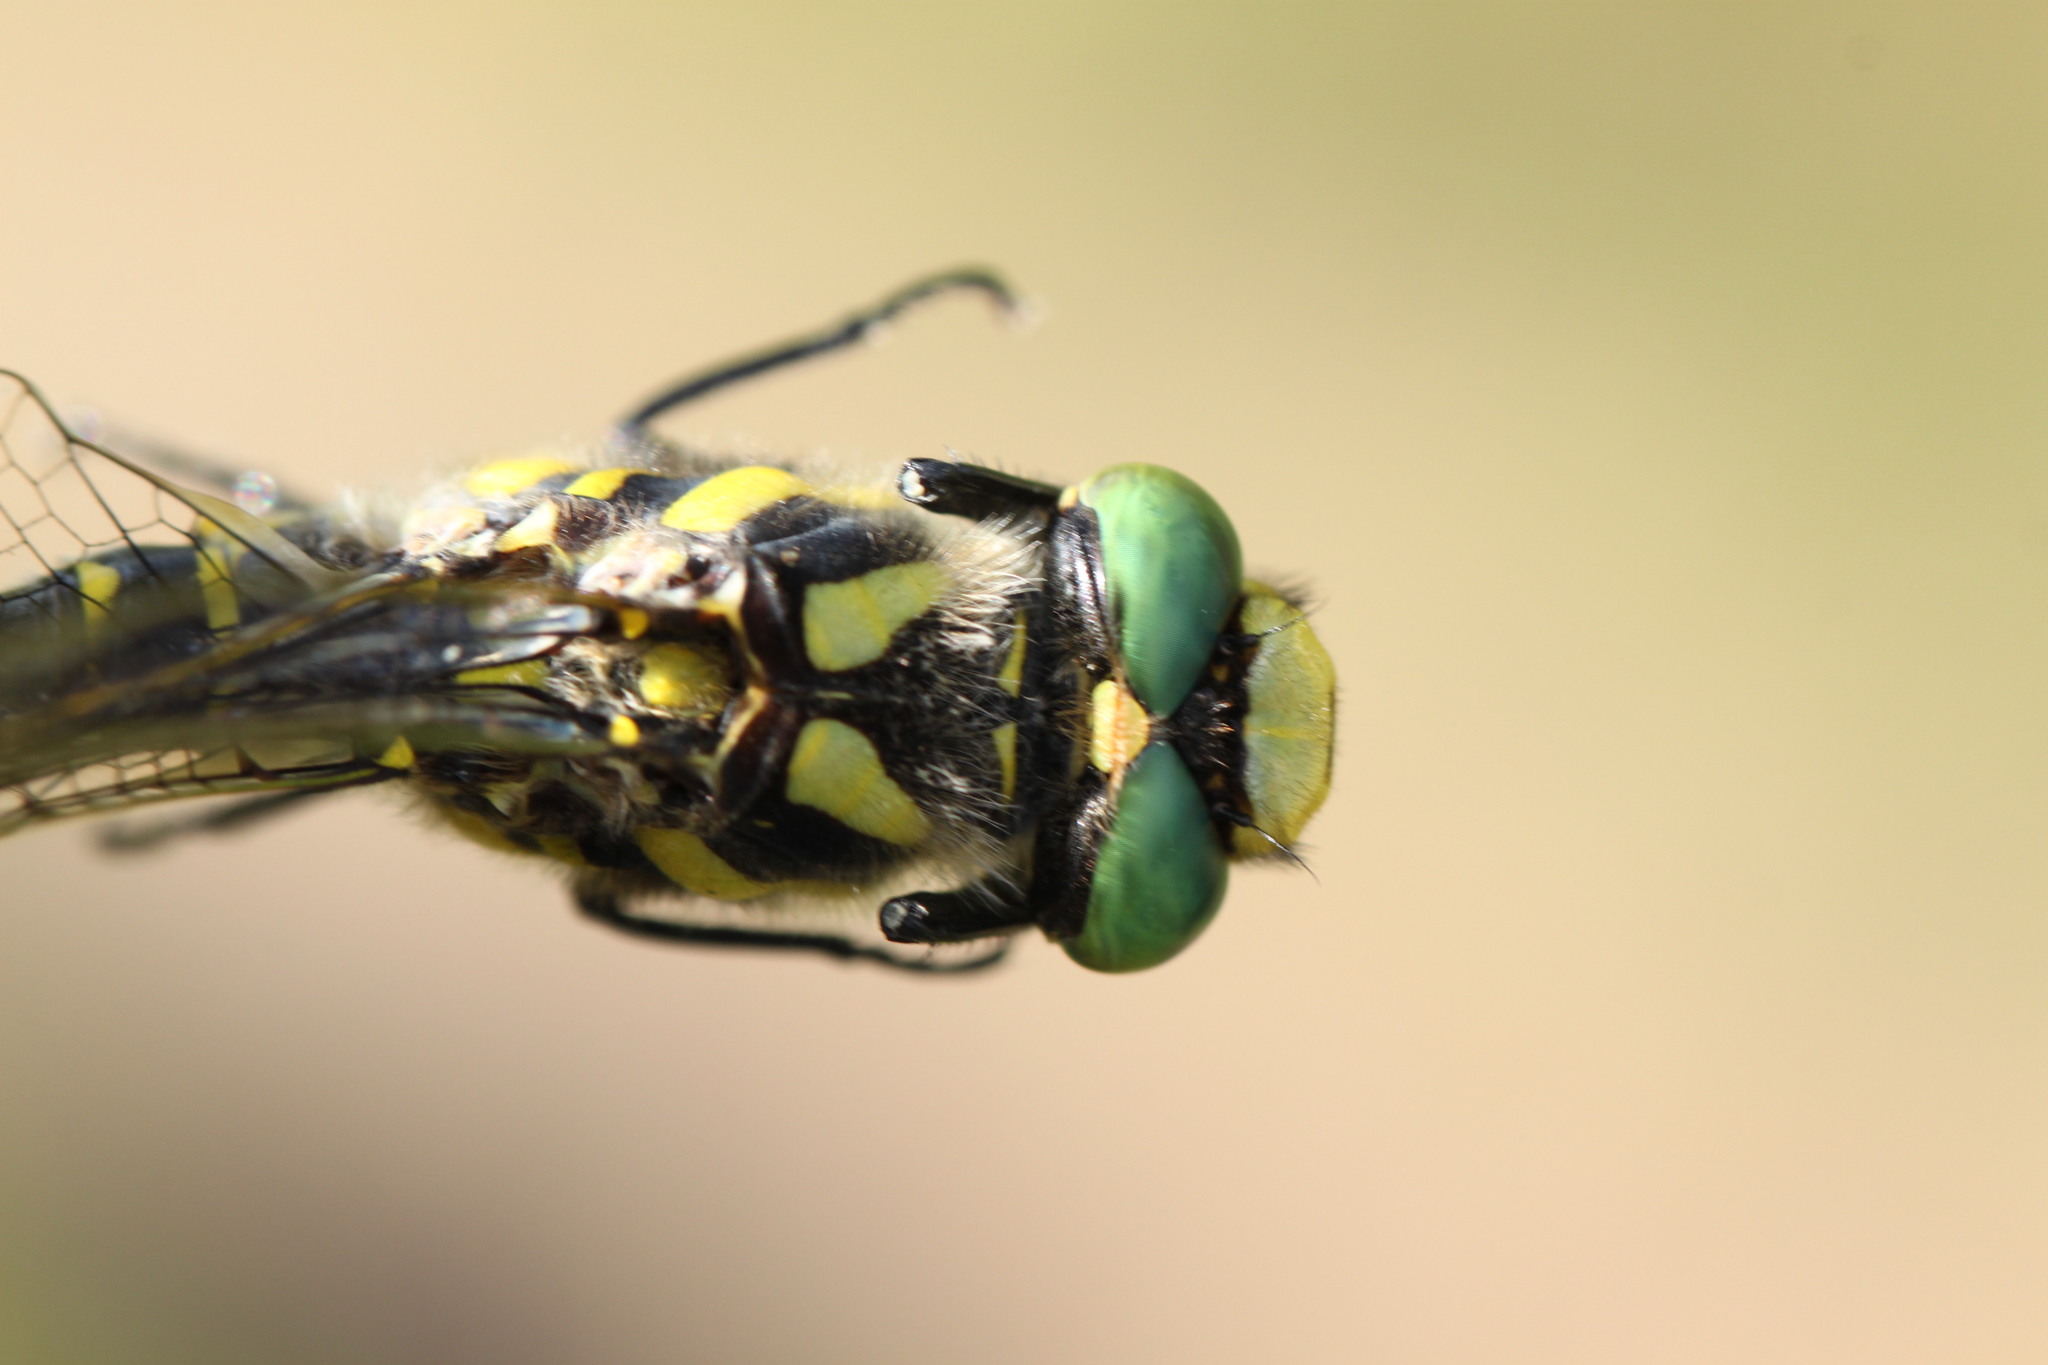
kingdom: Animalia
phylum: Arthropoda
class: Insecta
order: Odonata
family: Cordulegastridae
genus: Cordulegaster
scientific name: Cordulegaster boltonii
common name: Golden-ringed dragonfly
